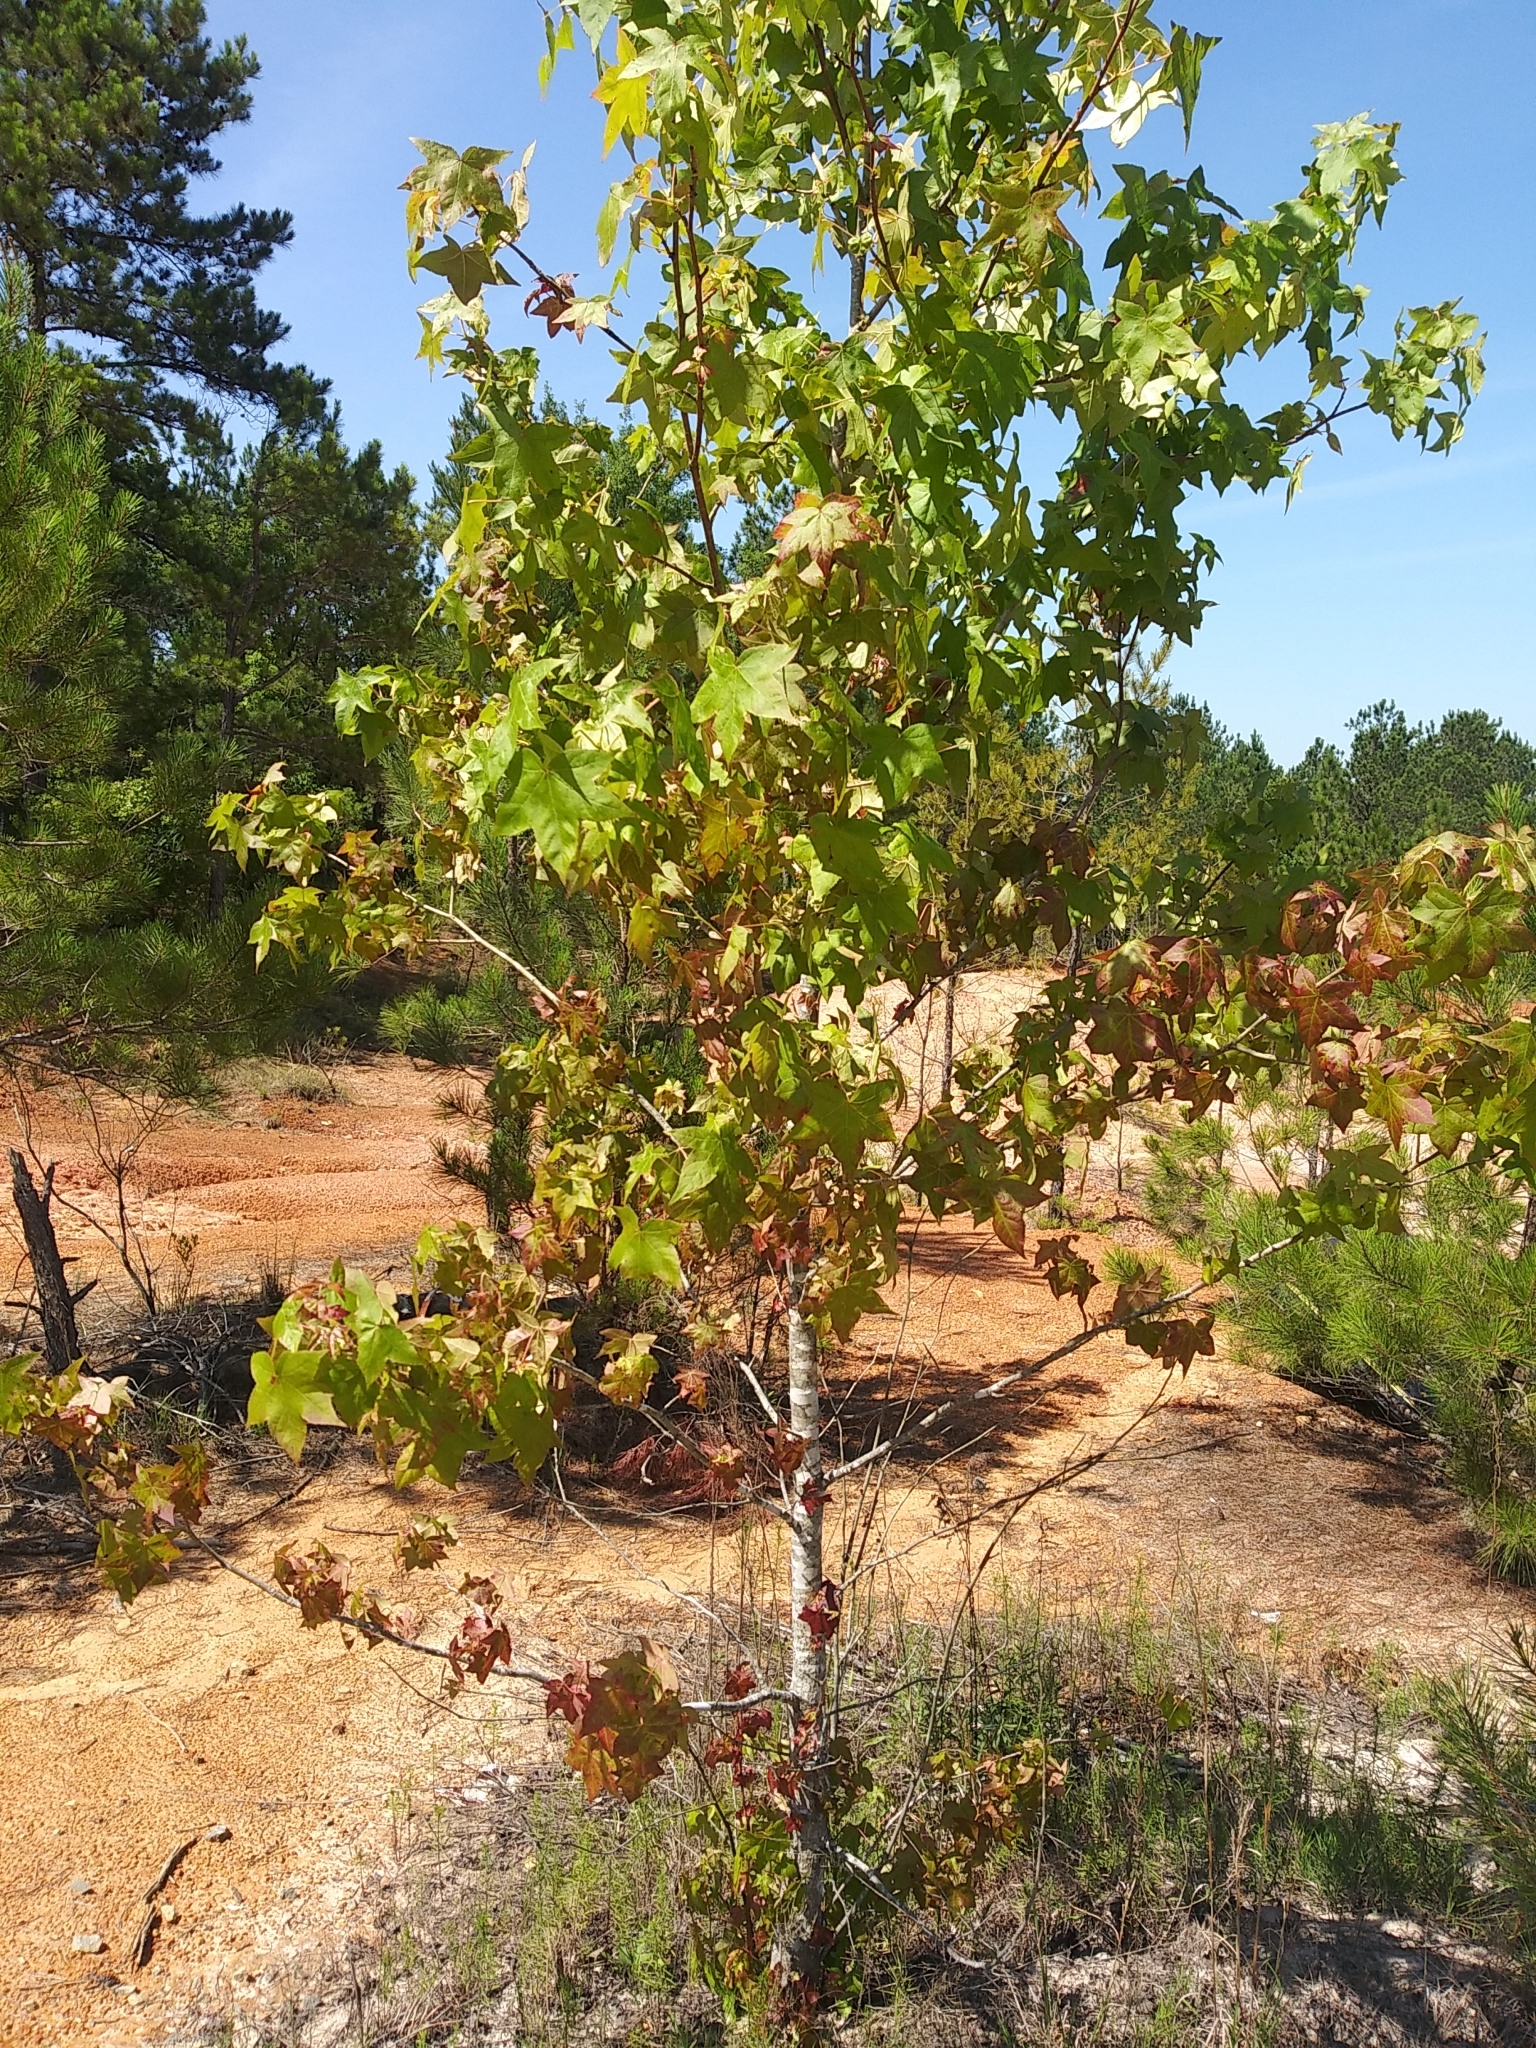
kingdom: Plantae
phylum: Tracheophyta
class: Magnoliopsida
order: Saxifragales
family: Altingiaceae
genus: Liquidambar
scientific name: Liquidambar styraciflua
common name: Sweet gum
